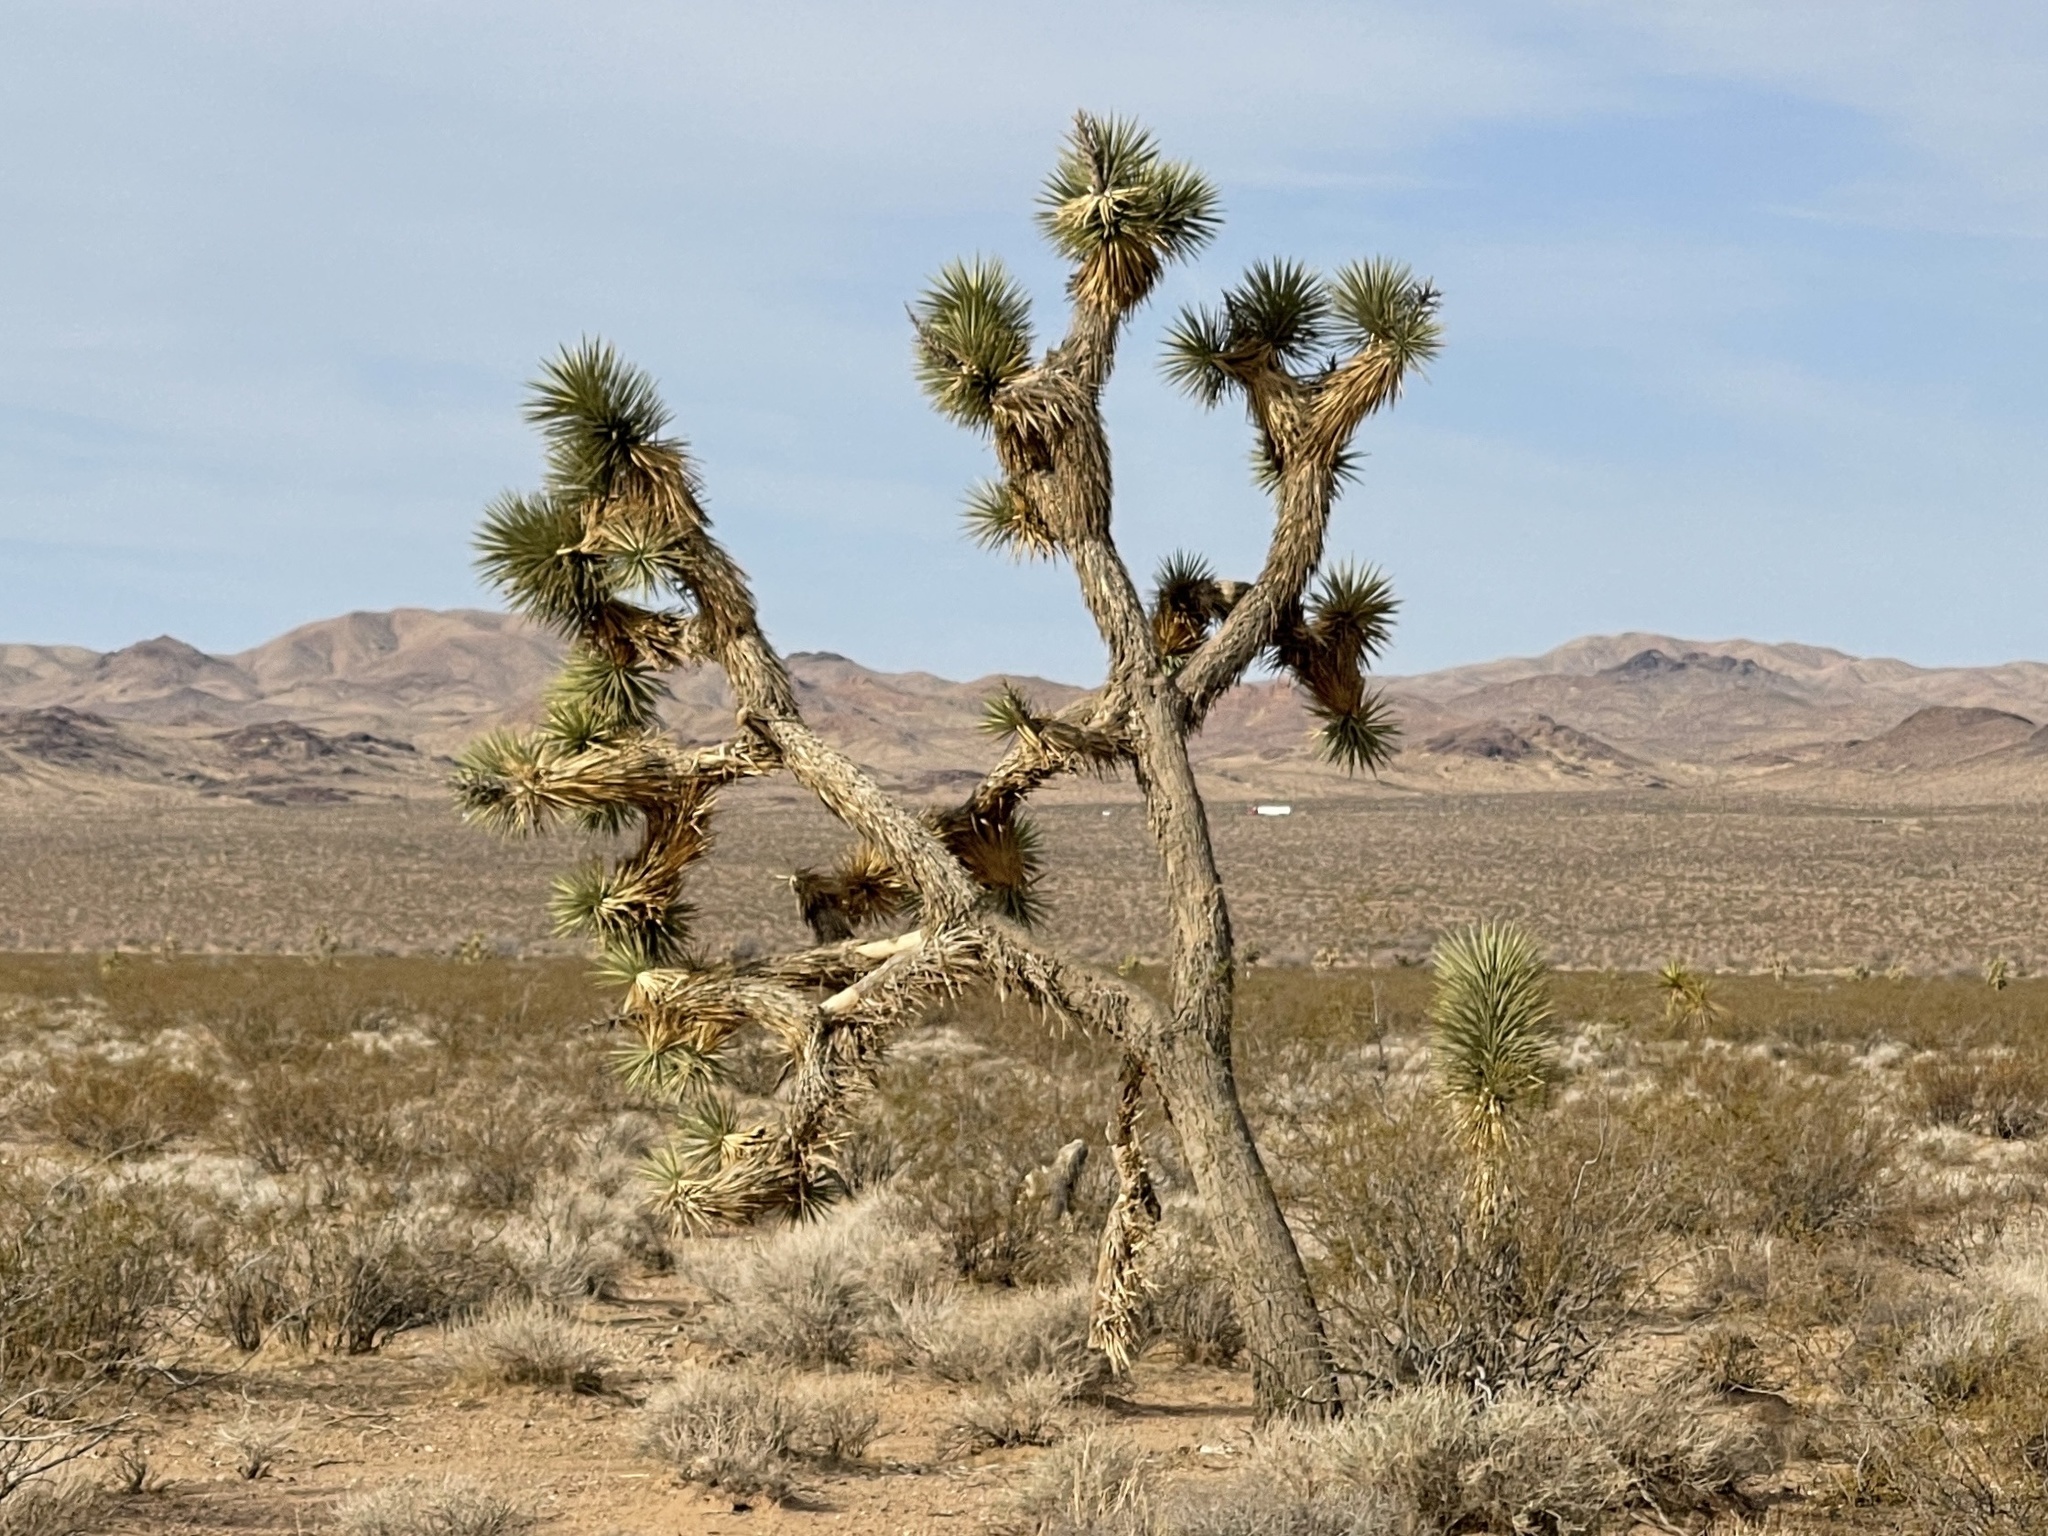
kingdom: Plantae
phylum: Tracheophyta
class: Liliopsida
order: Asparagales
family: Asparagaceae
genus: Yucca
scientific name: Yucca brevifolia
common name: Joshua tree
